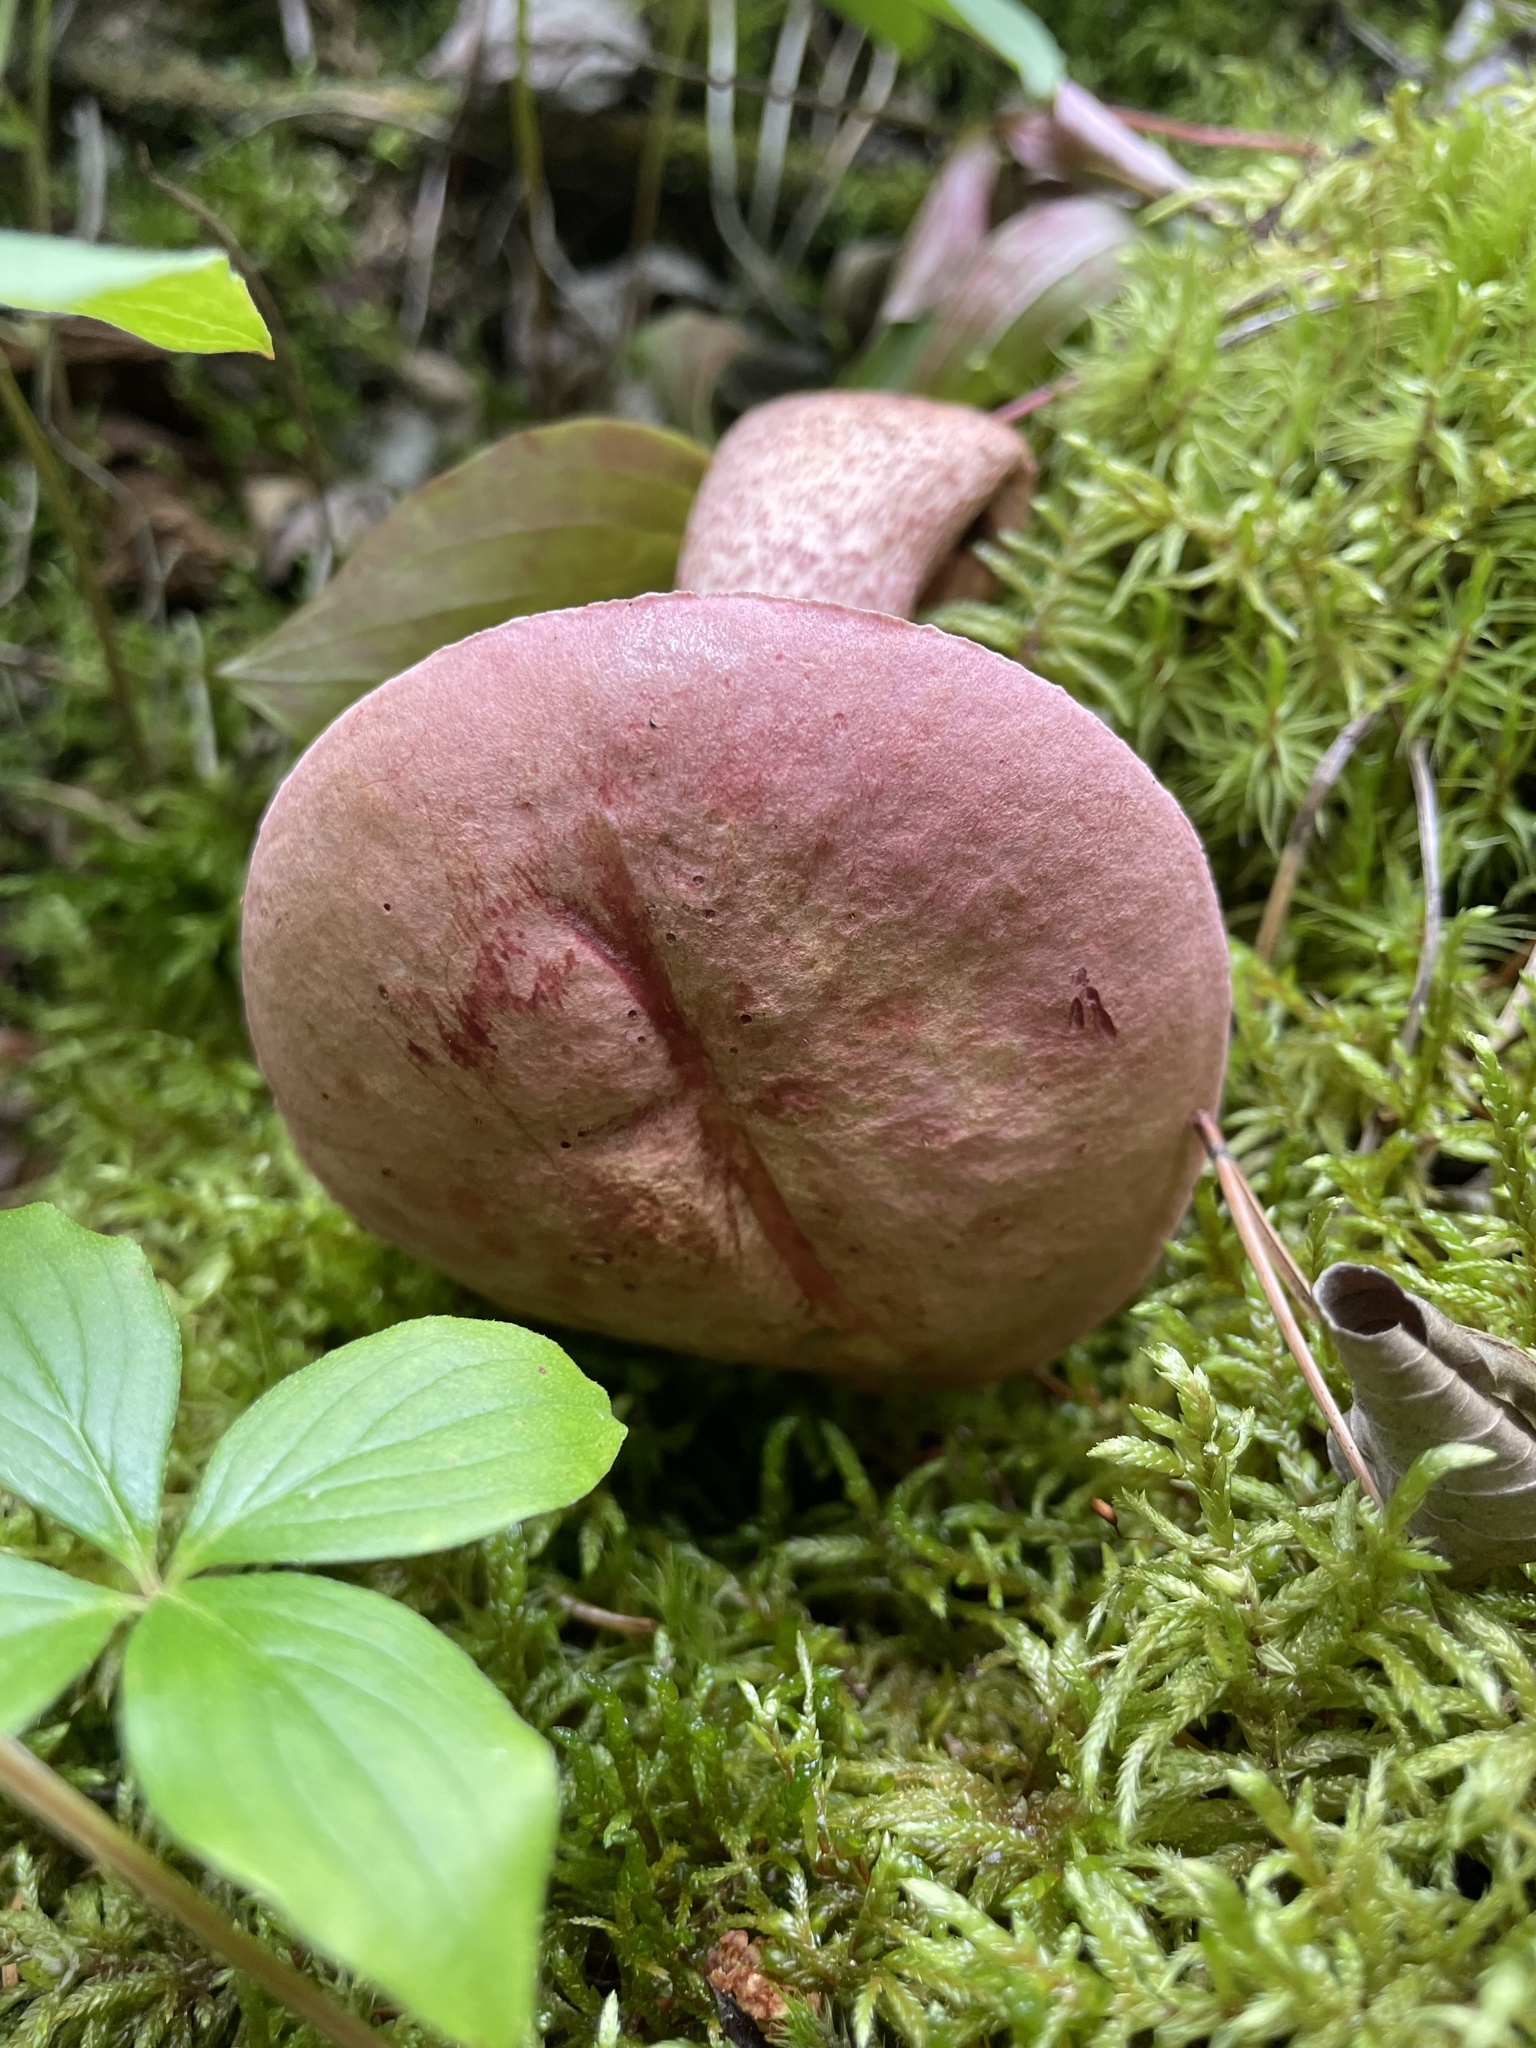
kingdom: Fungi
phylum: Basidiomycota
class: Agaricomycetes
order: Boletales
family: Boletaceae
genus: Harrya
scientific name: Harrya chromipes
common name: Chrome-footed bolete
